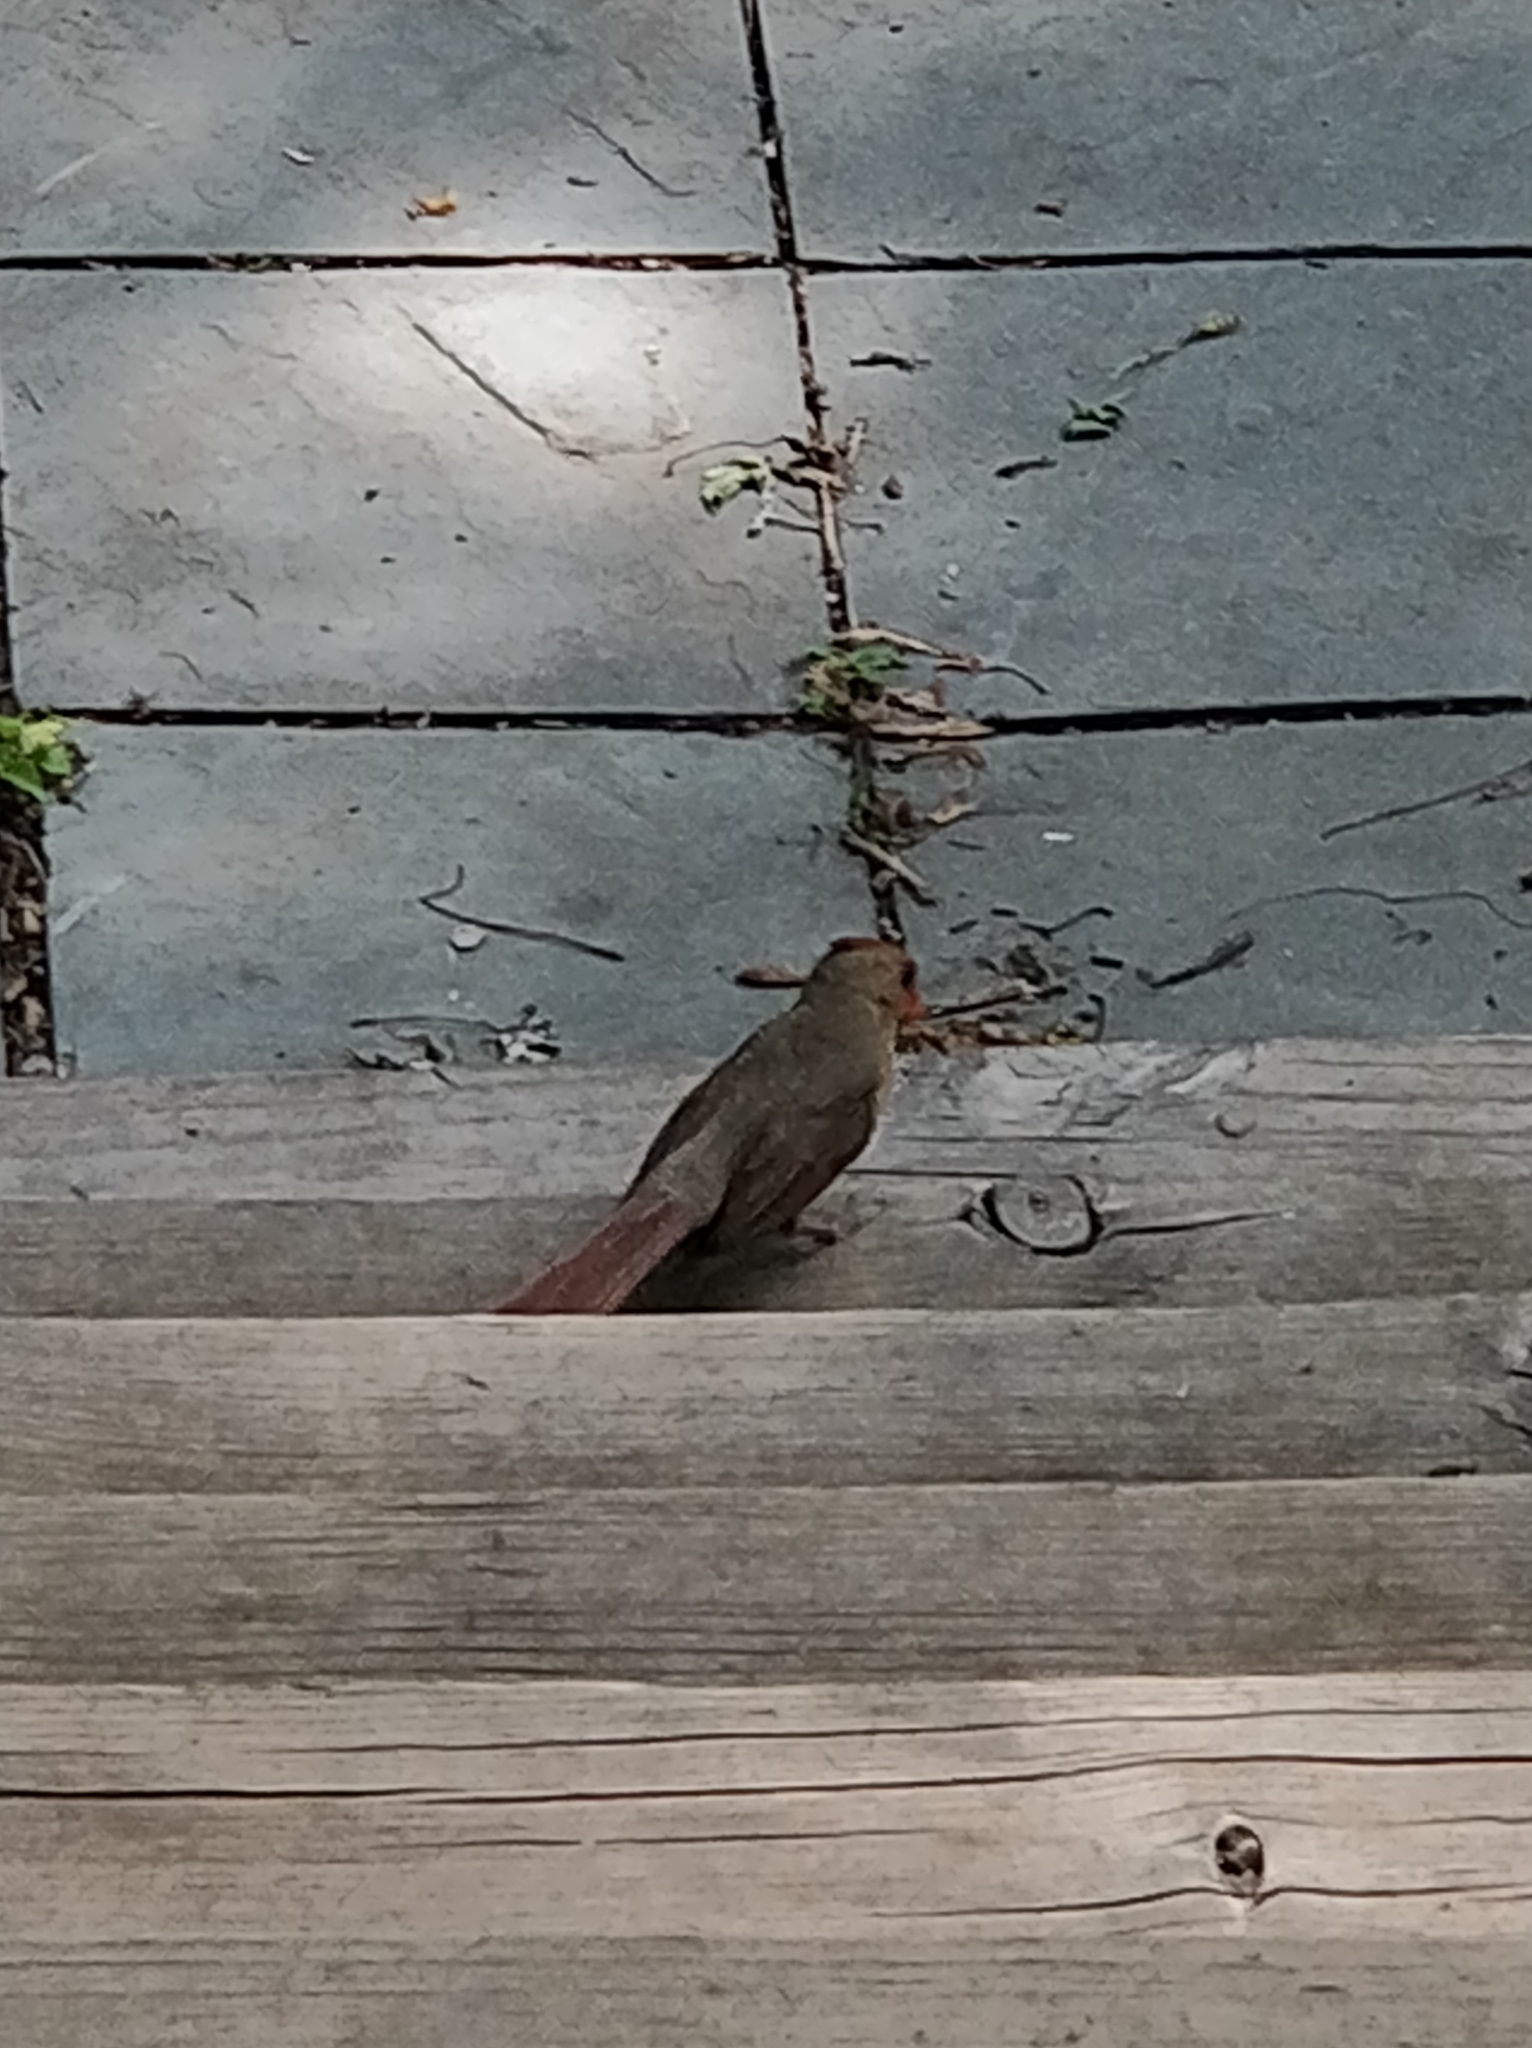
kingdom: Animalia
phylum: Chordata
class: Aves
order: Passeriformes
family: Cardinalidae
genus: Cardinalis
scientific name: Cardinalis cardinalis
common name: Northern cardinal
